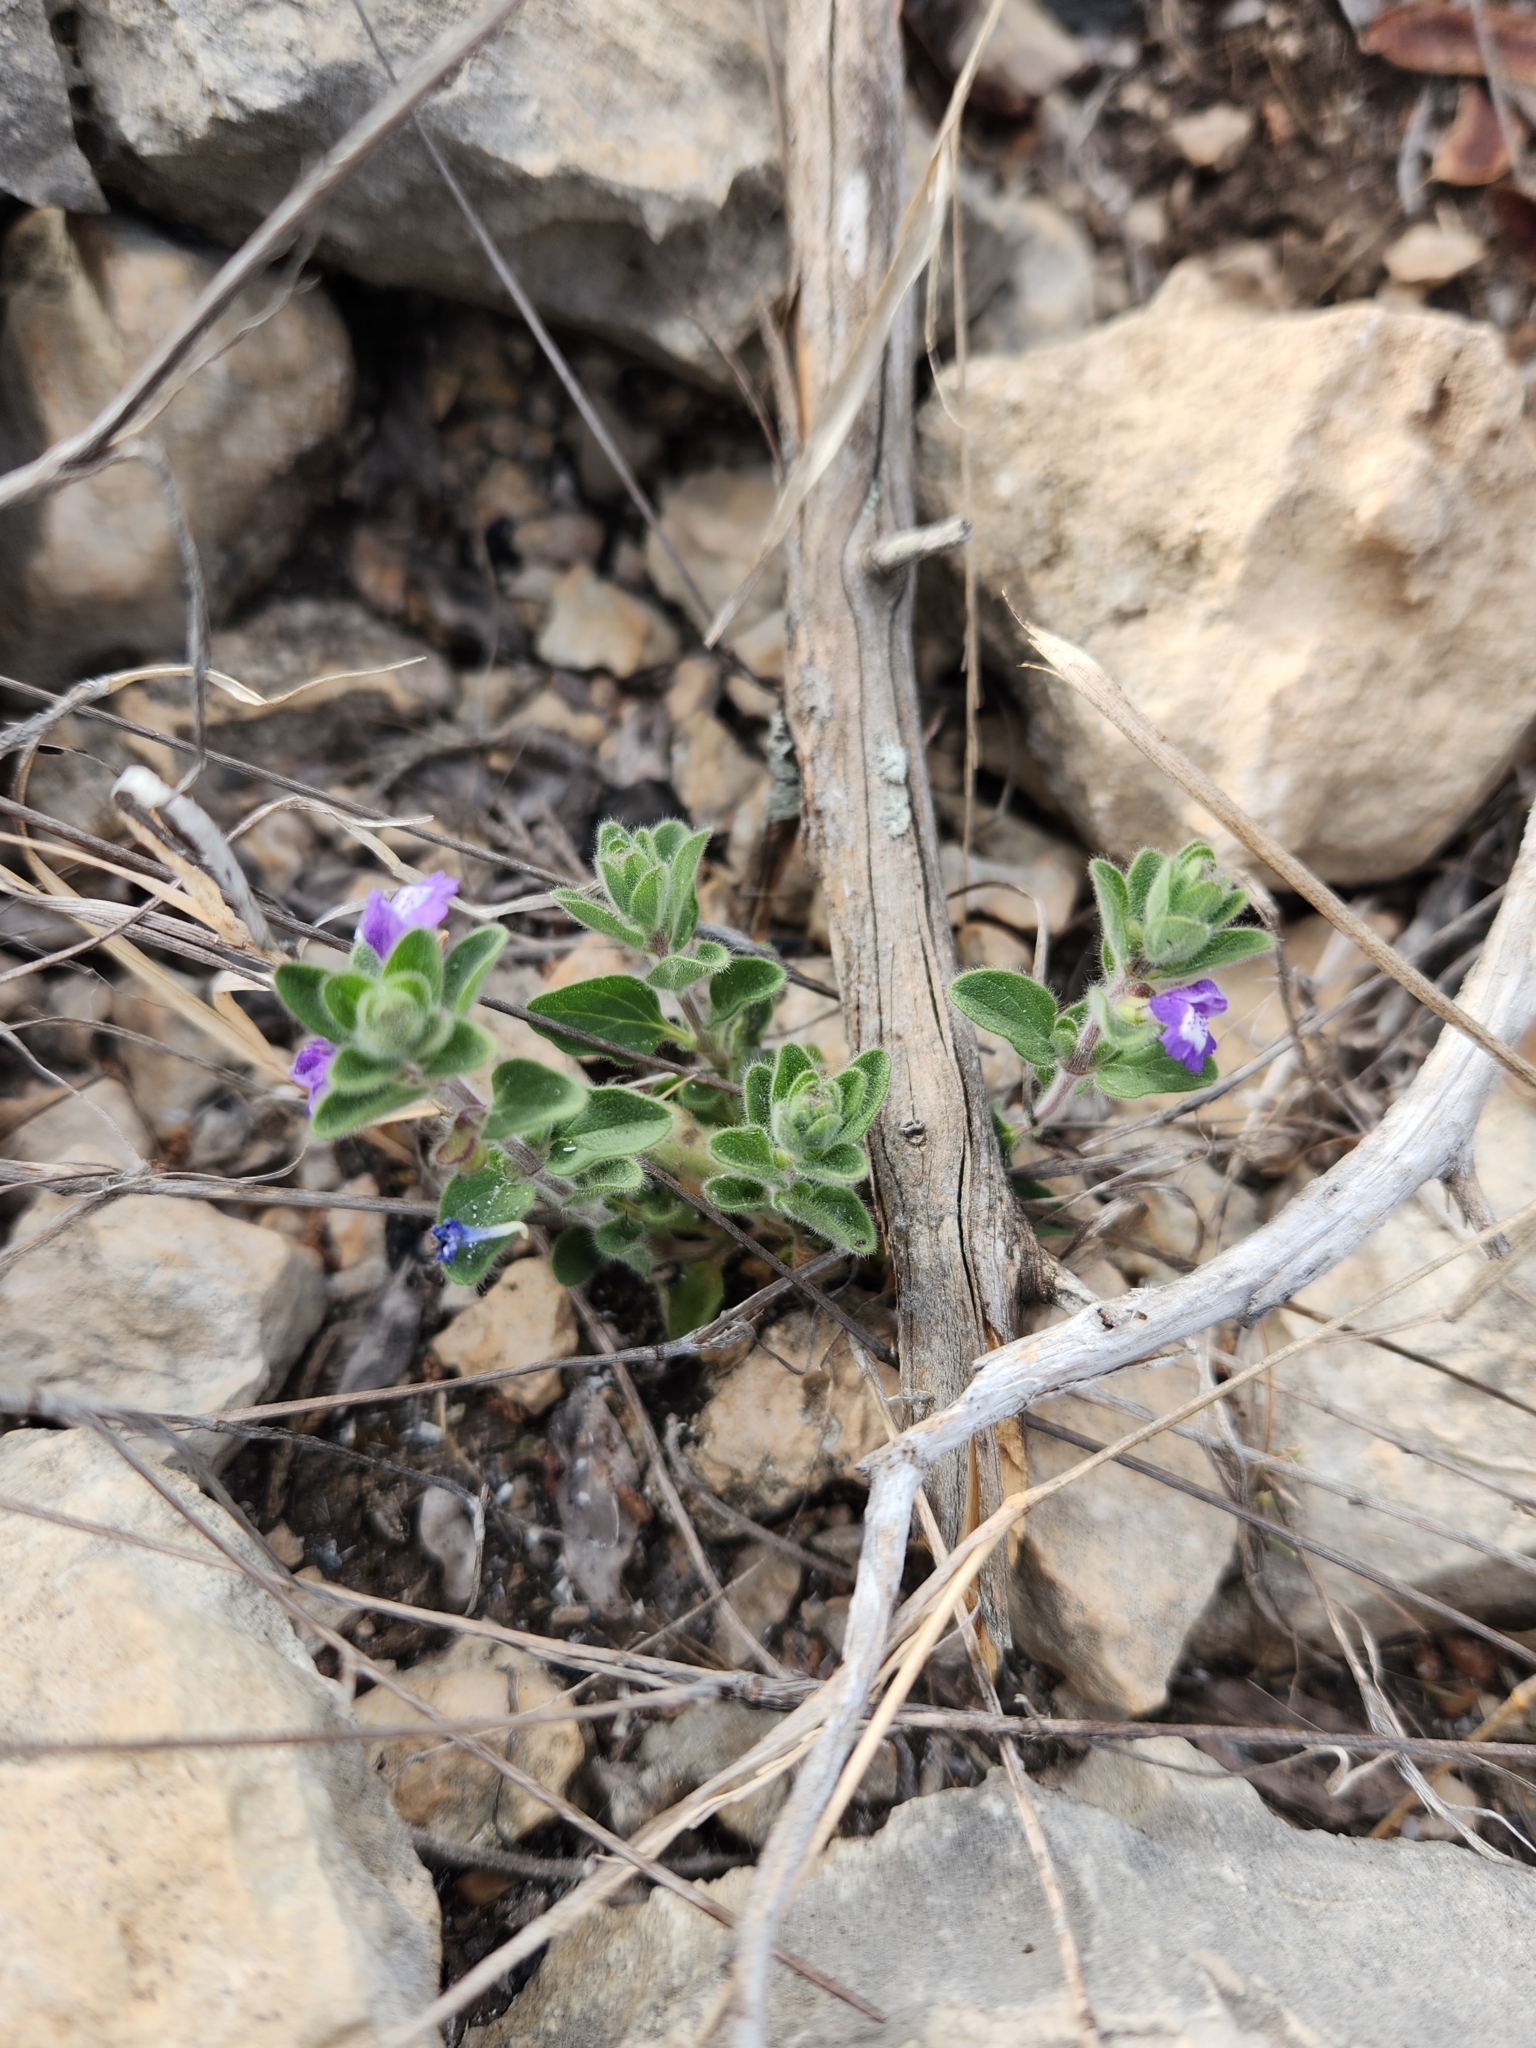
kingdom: Plantae
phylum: Tracheophyta
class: Magnoliopsida
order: Lamiales
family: Lamiaceae
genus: Scutellaria
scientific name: Scutellaria drummondii
